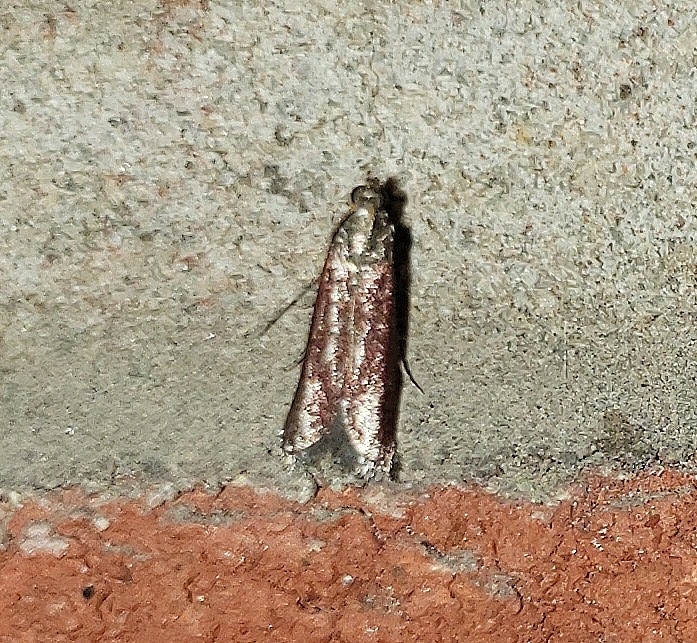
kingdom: Animalia
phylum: Arthropoda
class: Insecta
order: Lepidoptera
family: Pyralidae
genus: Varneria
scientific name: Varneria postremella
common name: Rusty varneria moth
